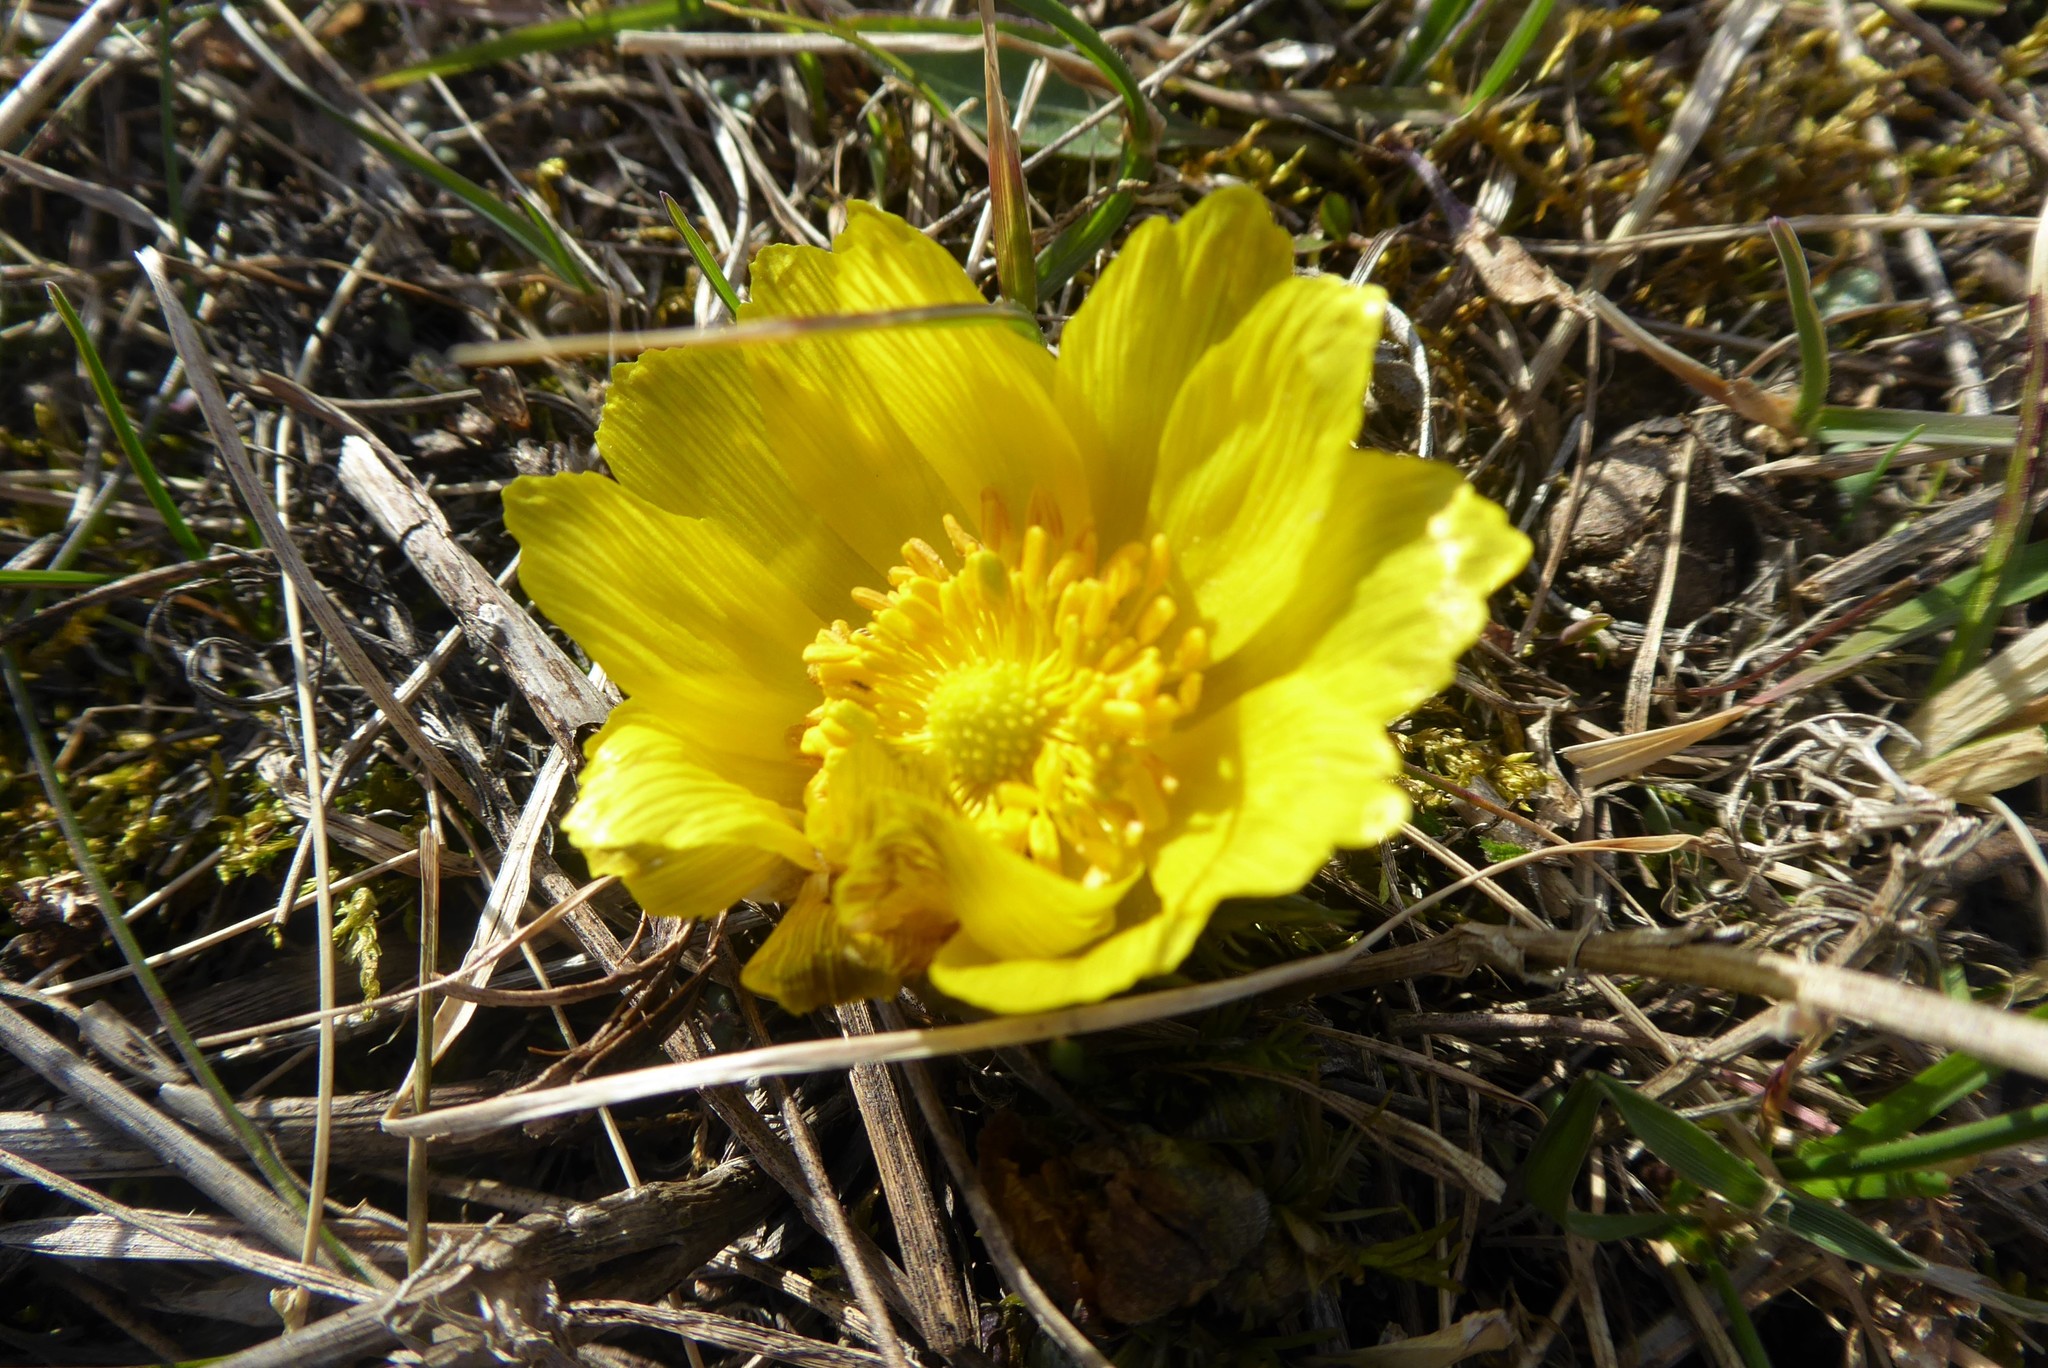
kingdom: Plantae
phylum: Tracheophyta
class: Magnoliopsida
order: Ranunculales
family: Ranunculaceae
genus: Adonis
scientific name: Adonis vernalis
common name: Yellow pheasants-eye
